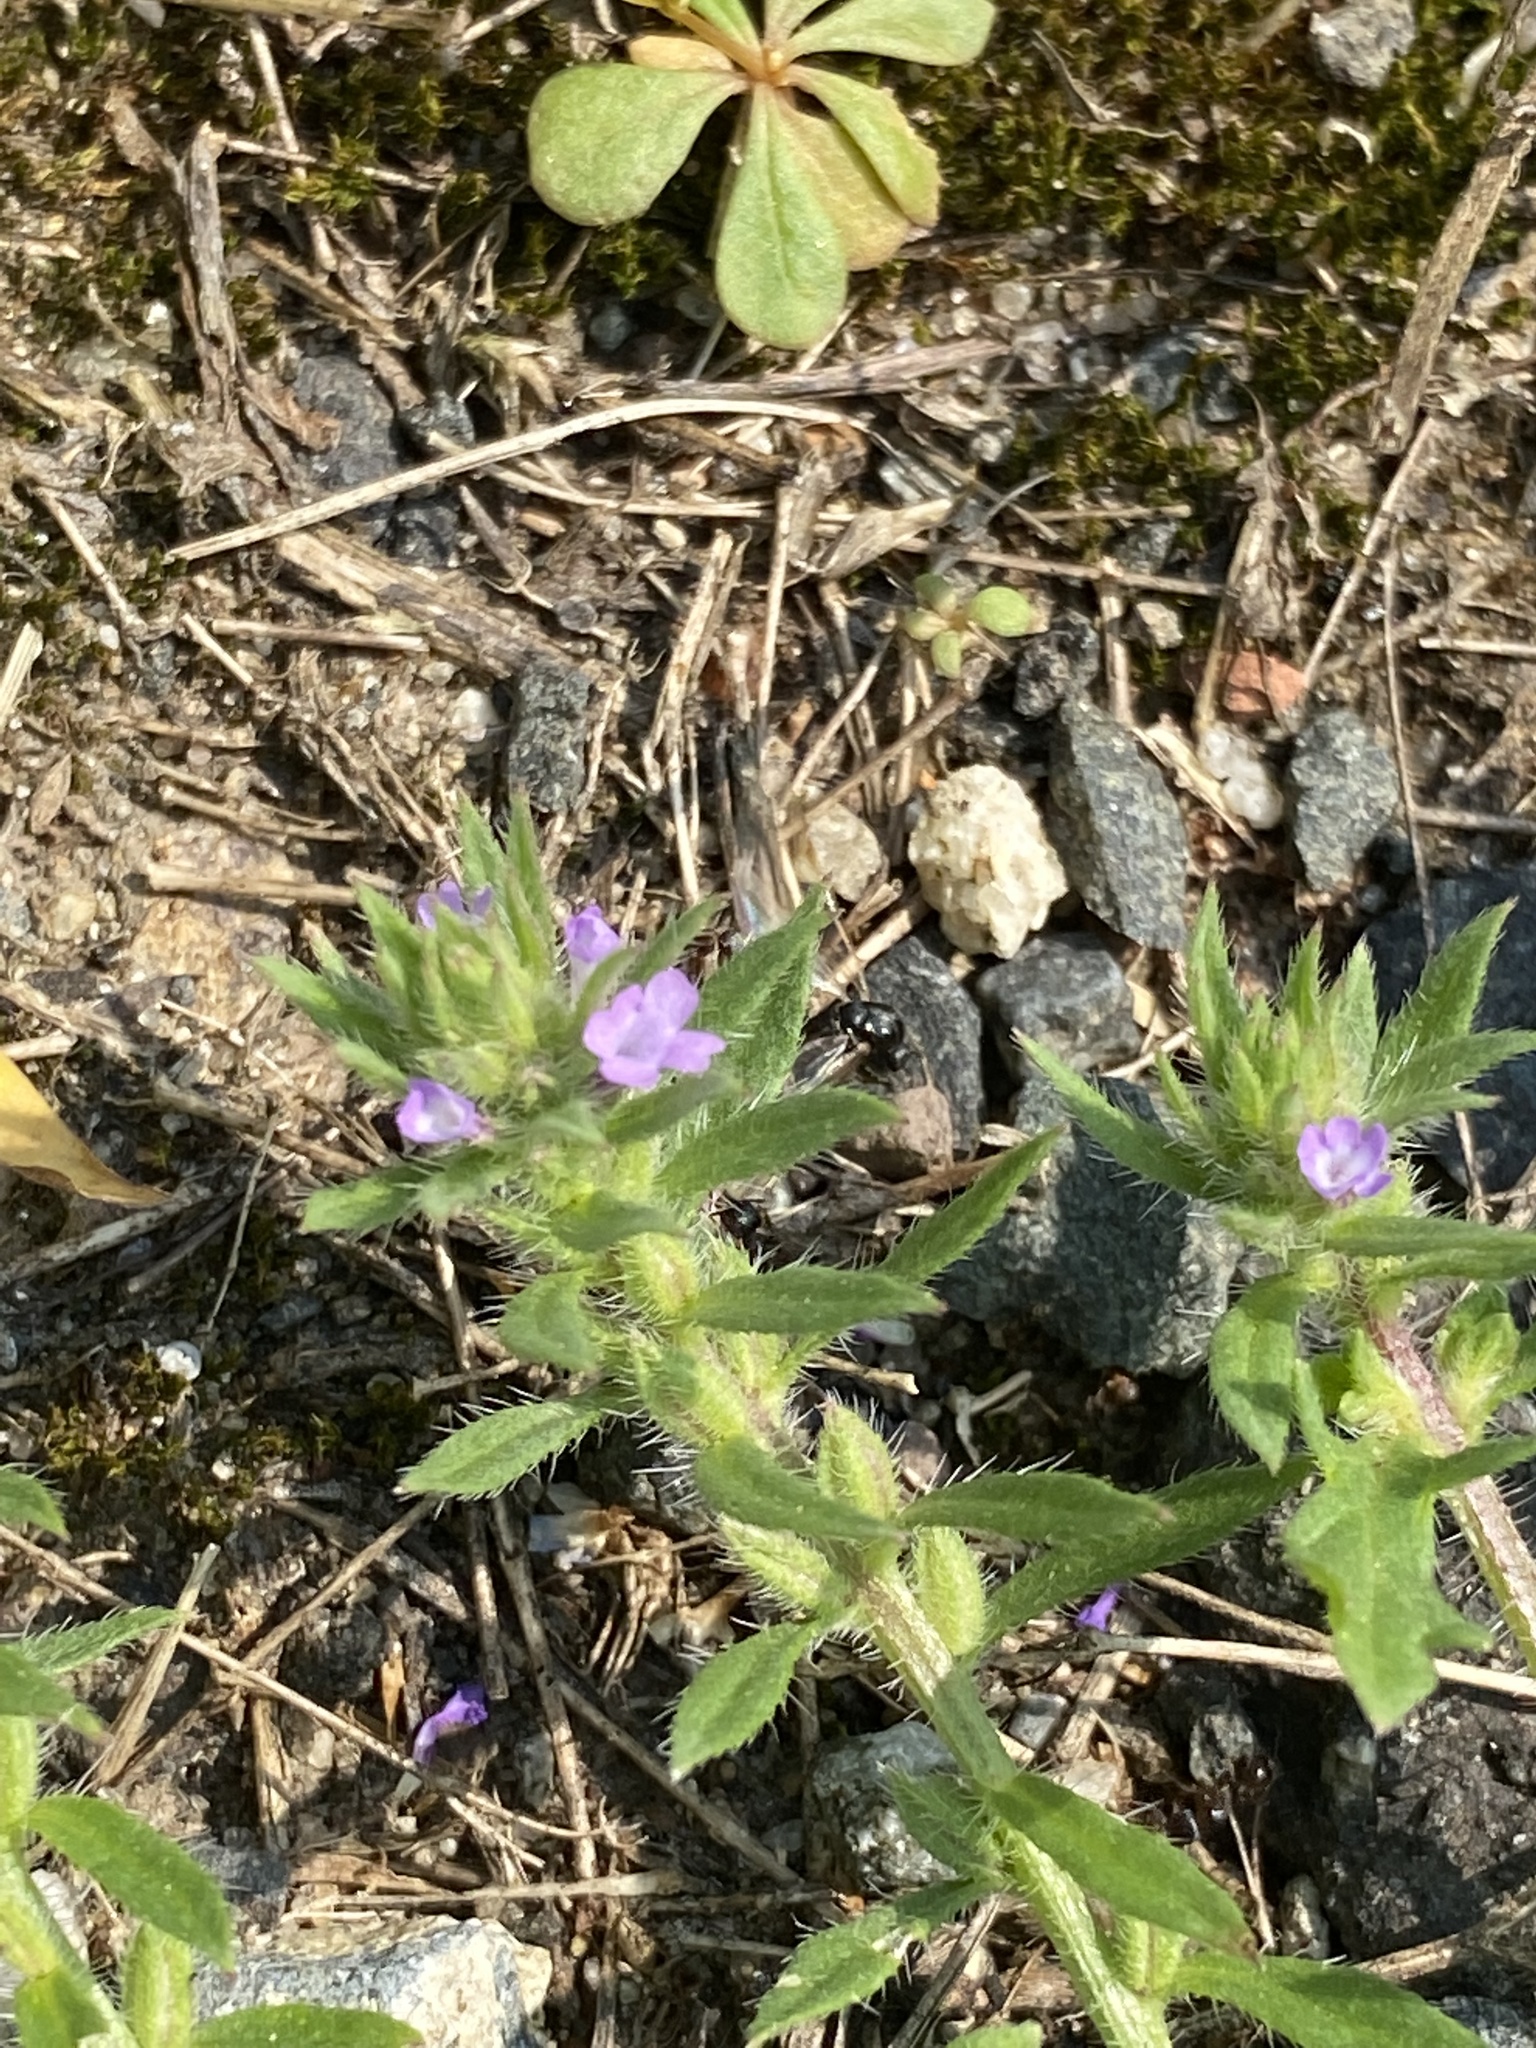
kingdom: Plantae
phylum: Tracheophyta
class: Magnoliopsida
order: Lamiales
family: Verbenaceae
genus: Verbena
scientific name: Verbena bracteata
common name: Bracted vervain
